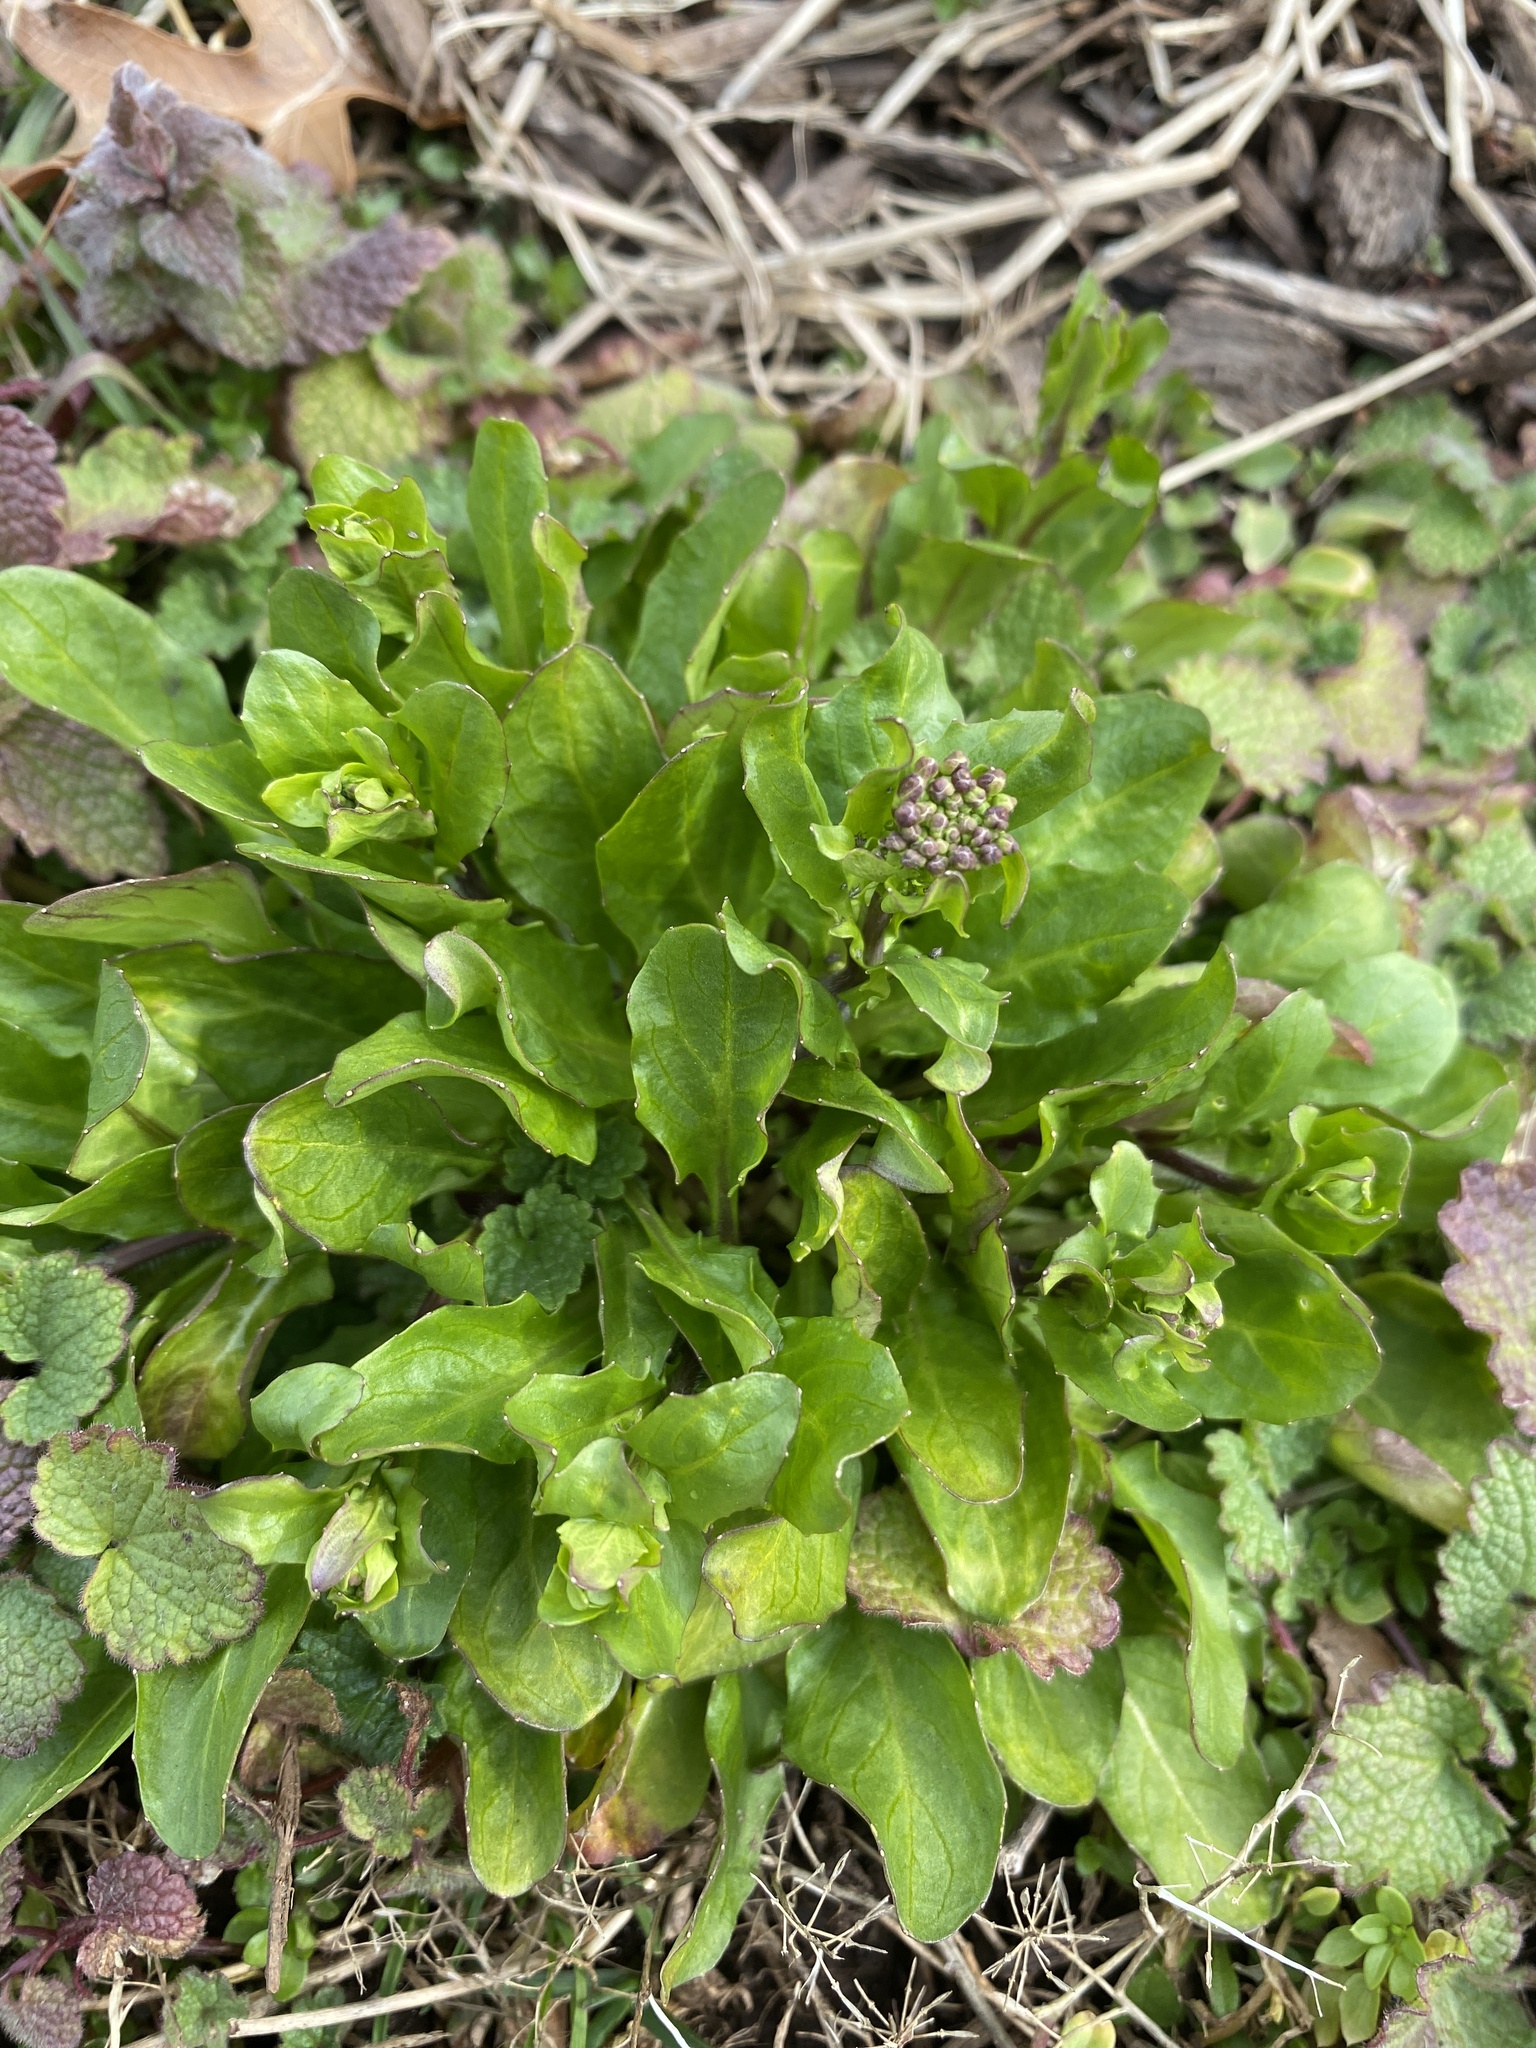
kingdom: Plantae
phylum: Tracheophyta
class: Magnoliopsida
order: Brassicales
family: Brassicaceae
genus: Mummenhoffia
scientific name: Mummenhoffia alliacea
